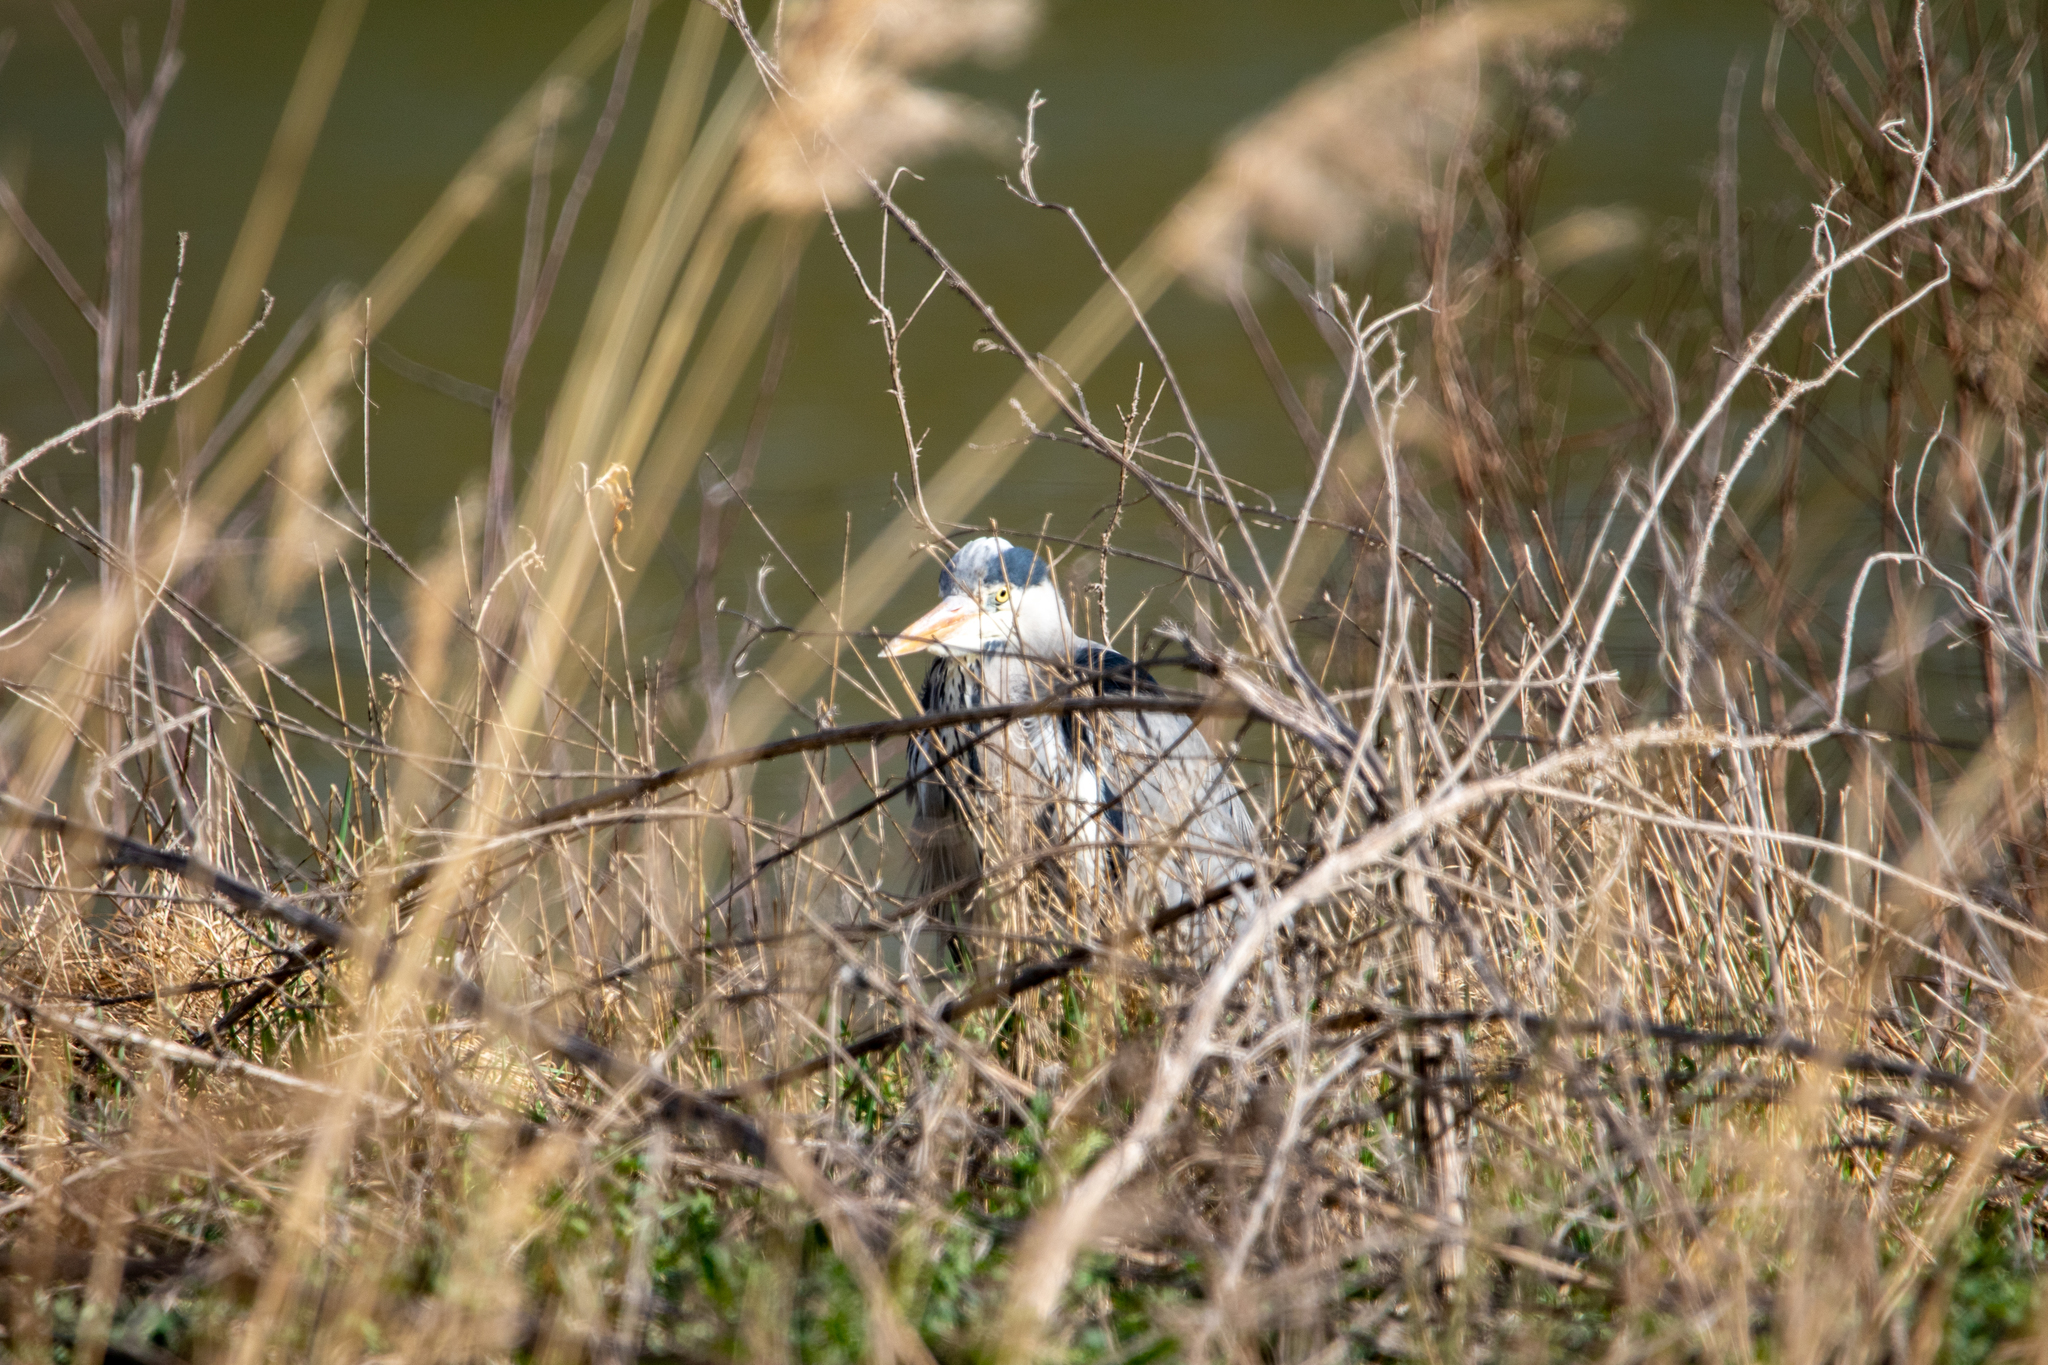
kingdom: Animalia
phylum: Chordata
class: Aves
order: Pelecaniformes
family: Ardeidae
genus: Ardea
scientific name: Ardea cinerea
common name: Grey heron
